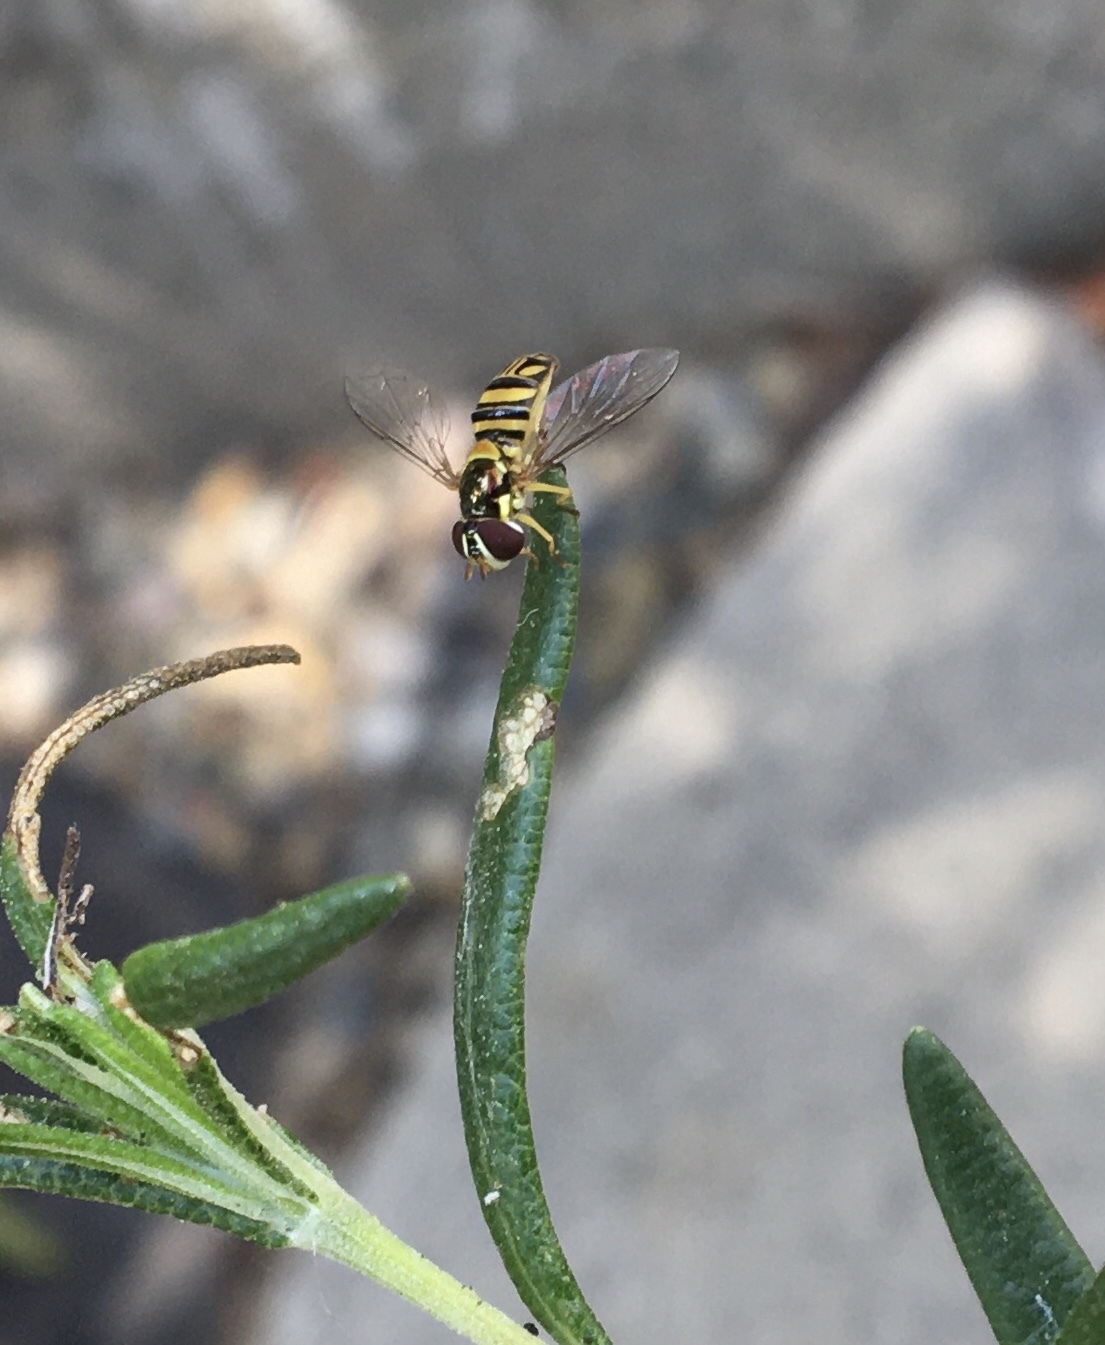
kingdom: Animalia
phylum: Arthropoda
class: Insecta
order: Diptera
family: Syrphidae
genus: Allograpta
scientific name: Allograpta obliqua
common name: Common oblique syrphid
